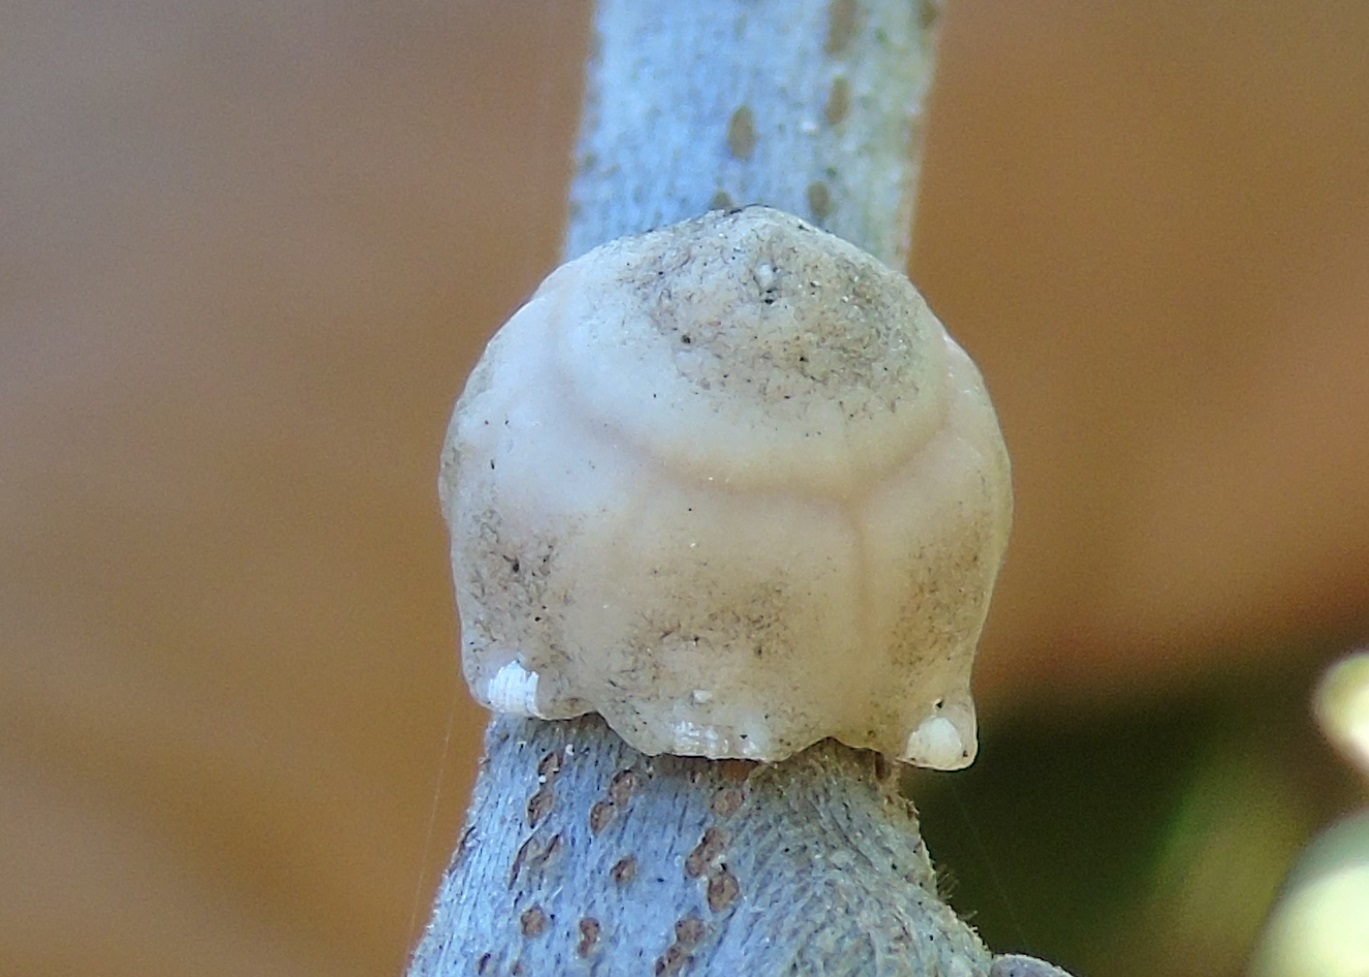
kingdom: Animalia
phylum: Arthropoda
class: Insecta
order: Hemiptera
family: Coccidae
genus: Ceroplastes
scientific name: Ceroplastes
